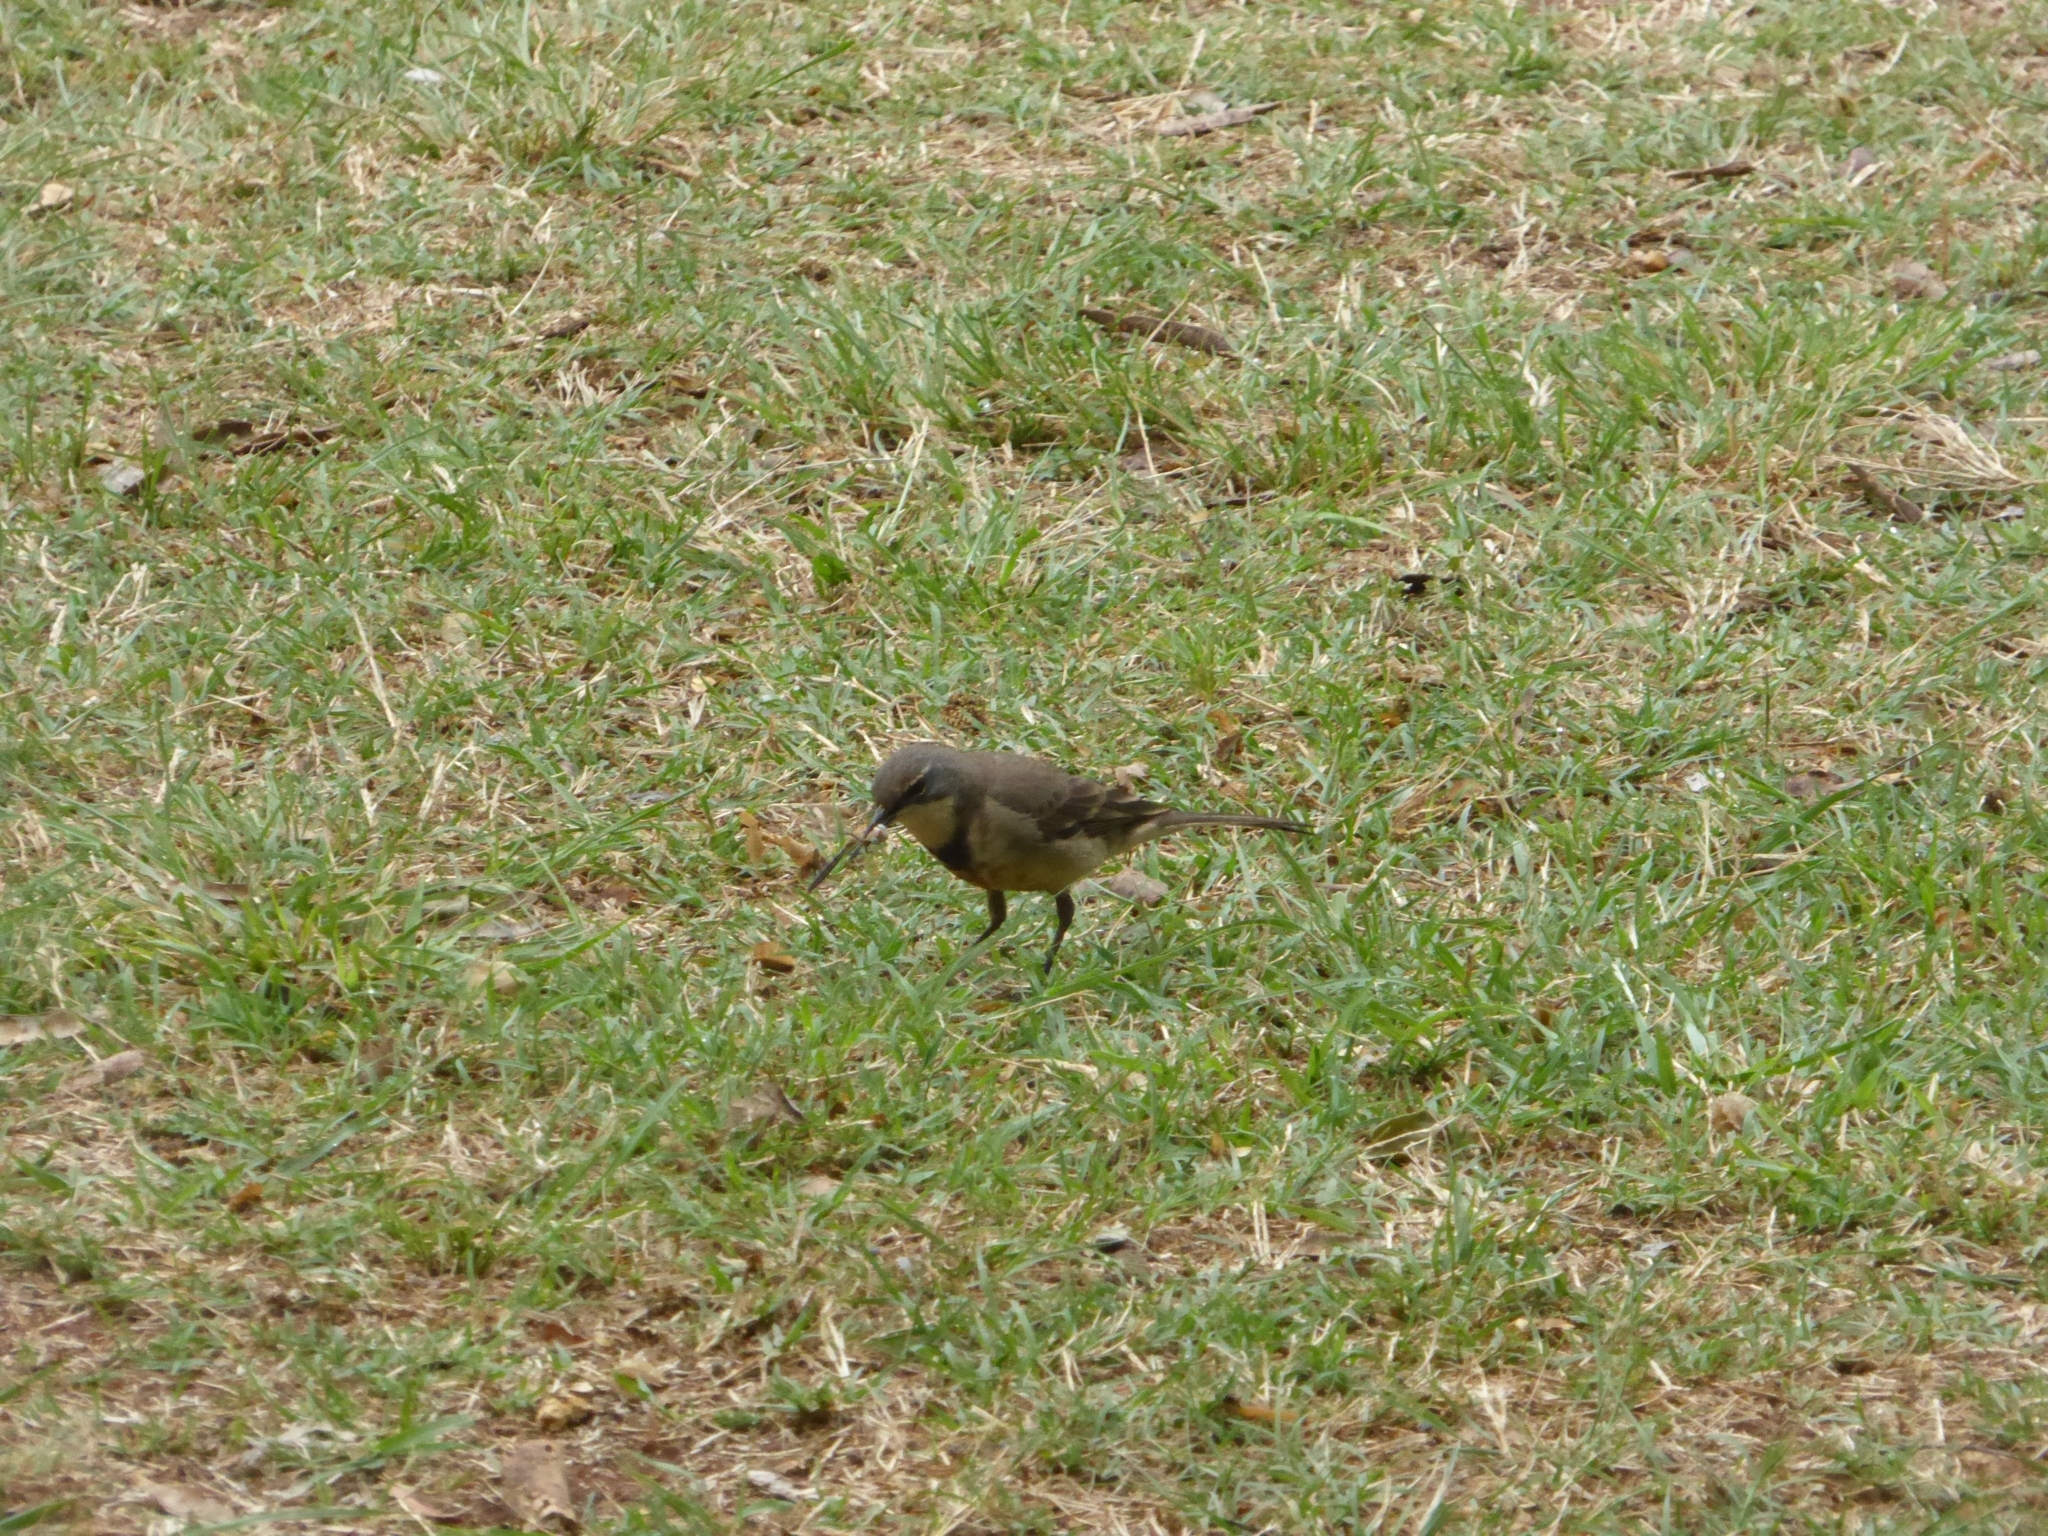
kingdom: Animalia
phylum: Chordata
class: Aves
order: Passeriformes
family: Motacillidae
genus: Motacilla
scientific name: Motacilla capensis
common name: Cape wagtail
